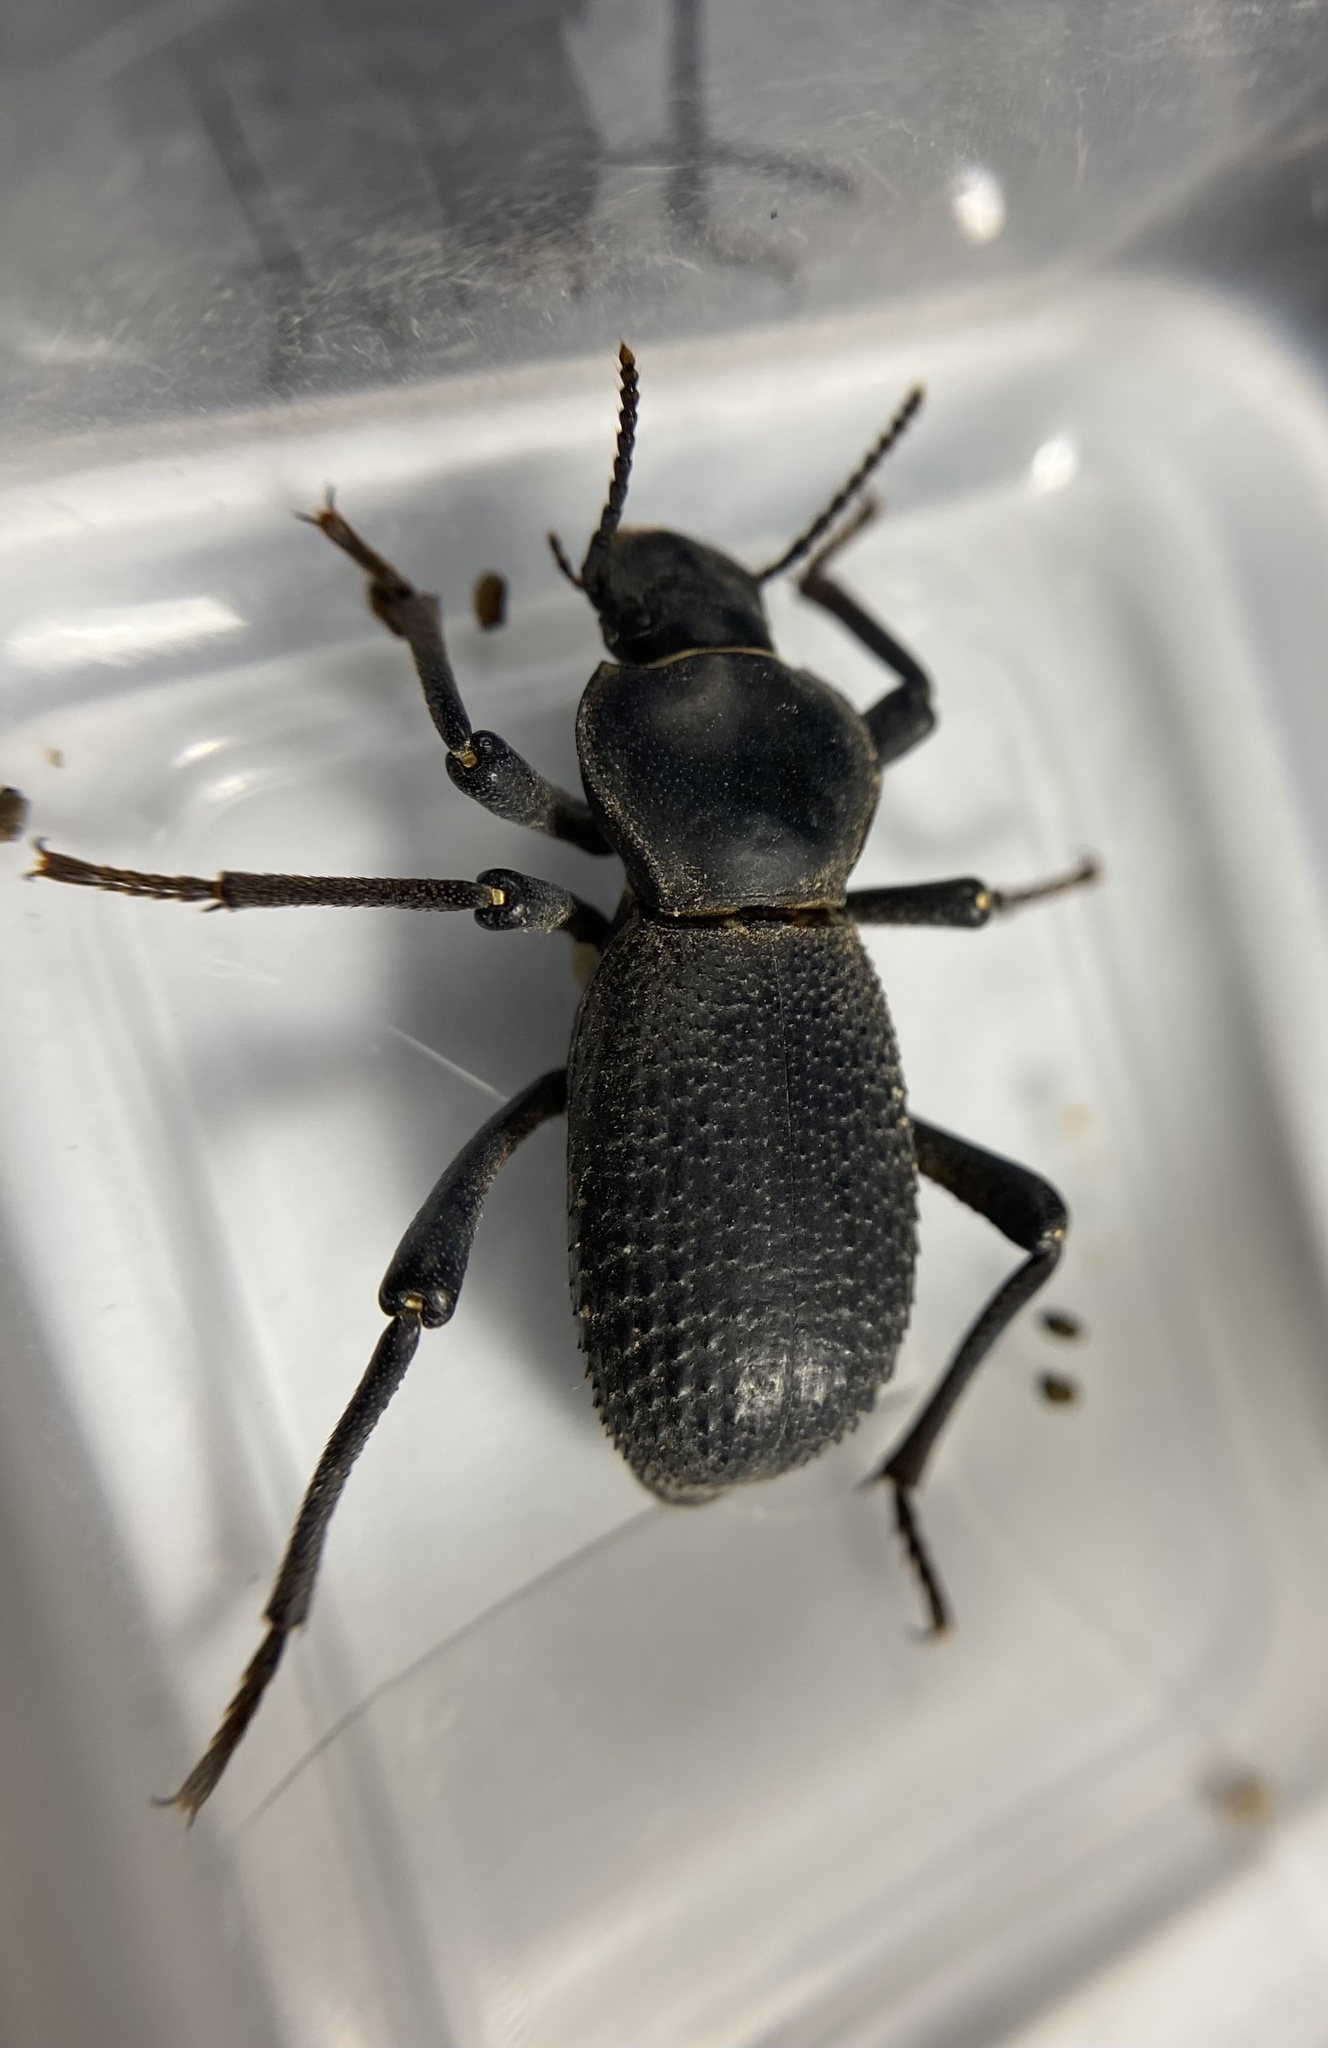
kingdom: Animalia
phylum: Arthropoda
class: Insecta
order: Coleoptera
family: Tenebrionidae
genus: Cryptoglossa
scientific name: Cryptoglossa muricata
